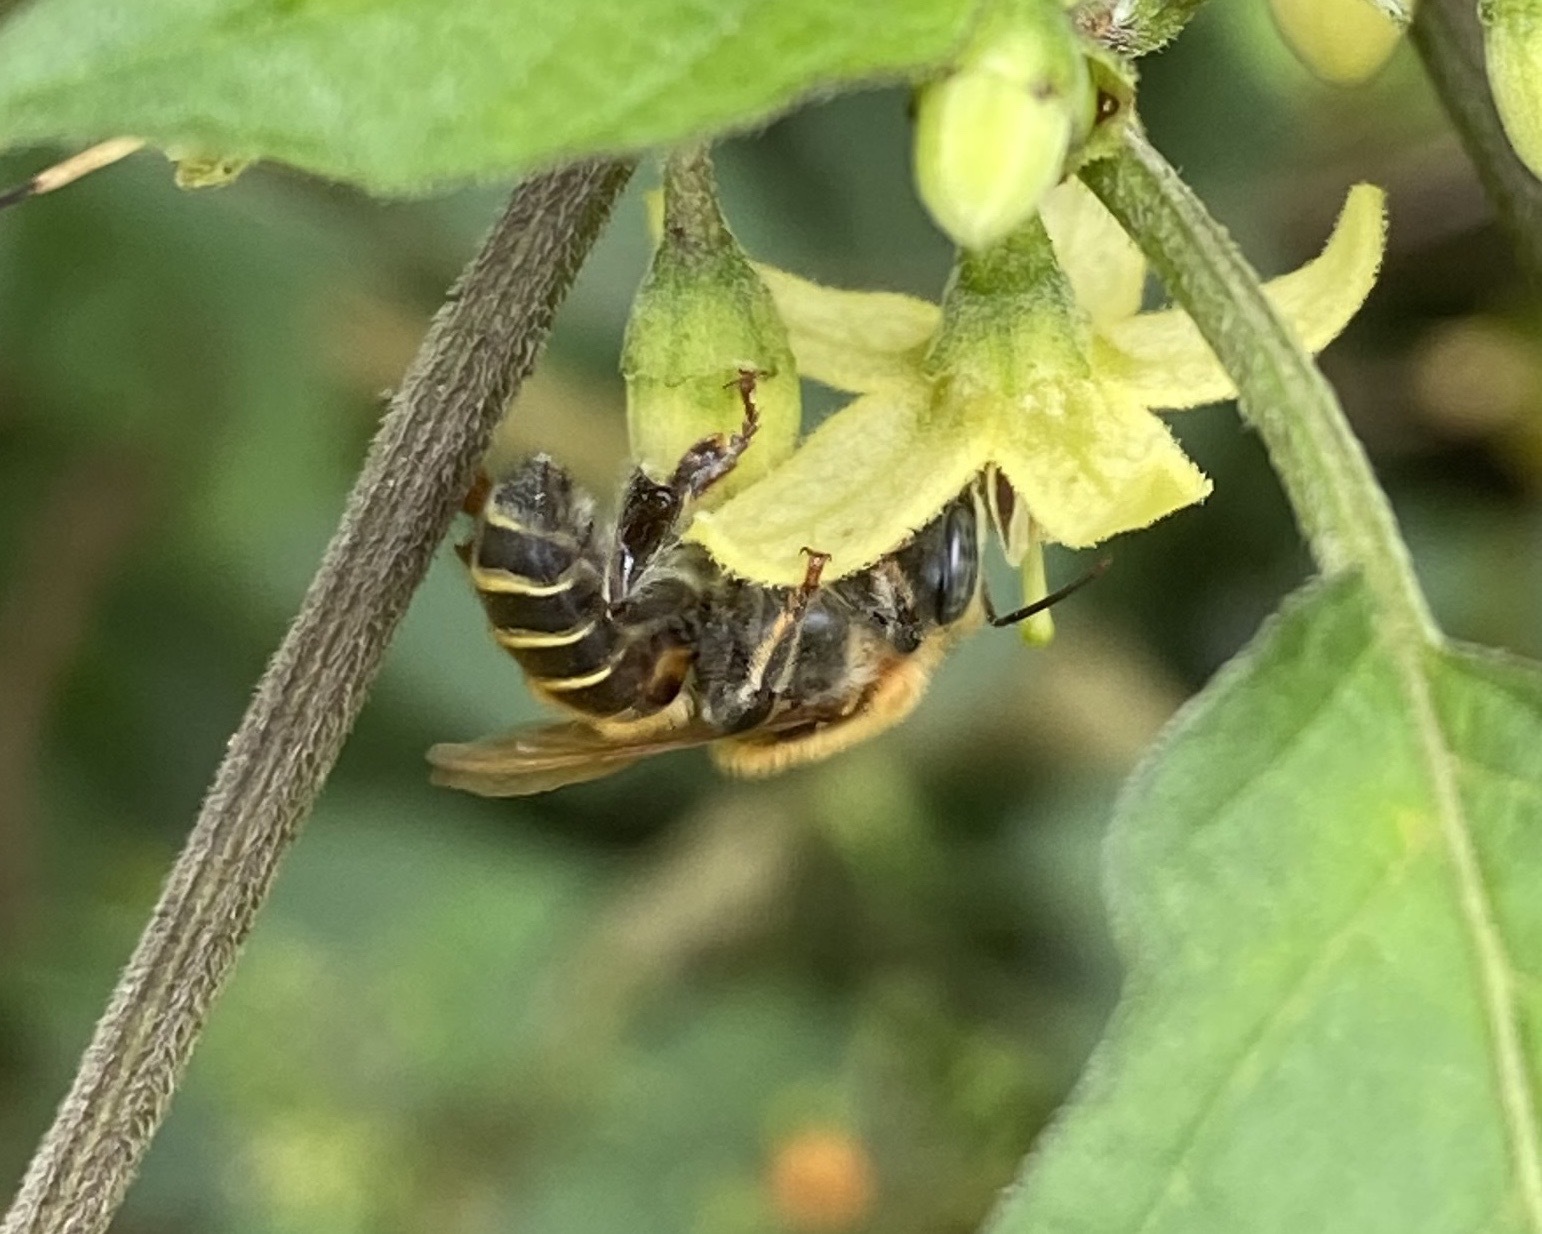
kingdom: Animalia
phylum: Arthropoda
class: Insecta
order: Hymenoptera
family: Apidae
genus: Melipona
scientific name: Melipona beecheii
